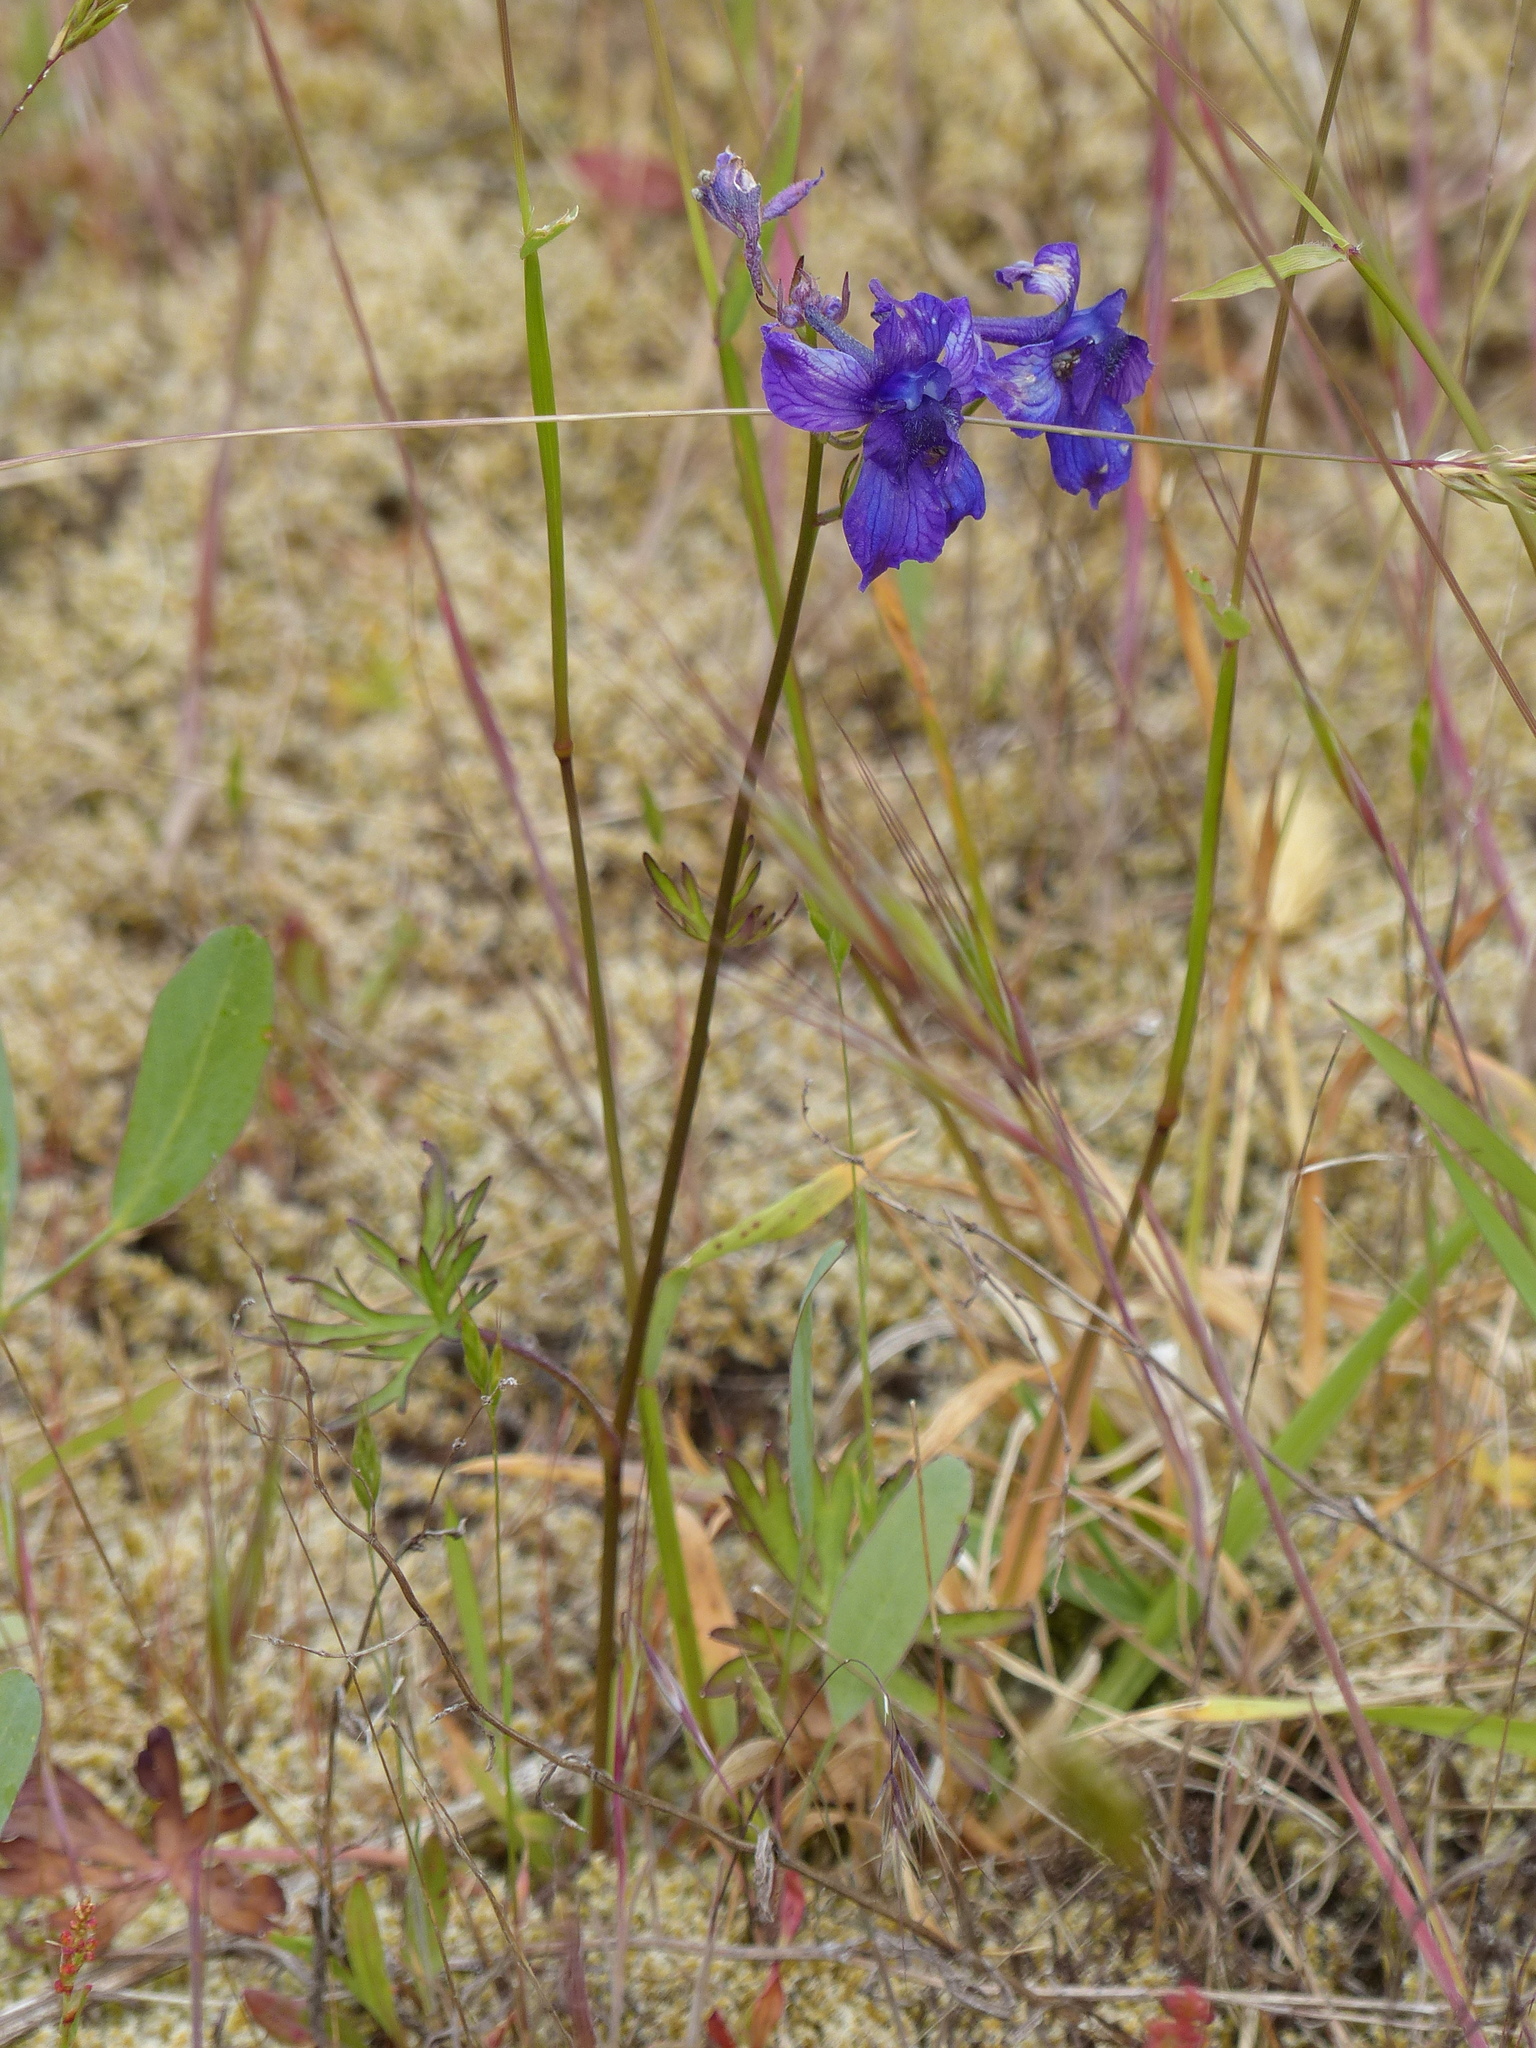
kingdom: Plantae
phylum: Tracheophyta
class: Magnoliopsida
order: Ranunculales
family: Ranunculaceae
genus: Delphinium
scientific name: Delphinium menziesii
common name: Menzies's larkspur
